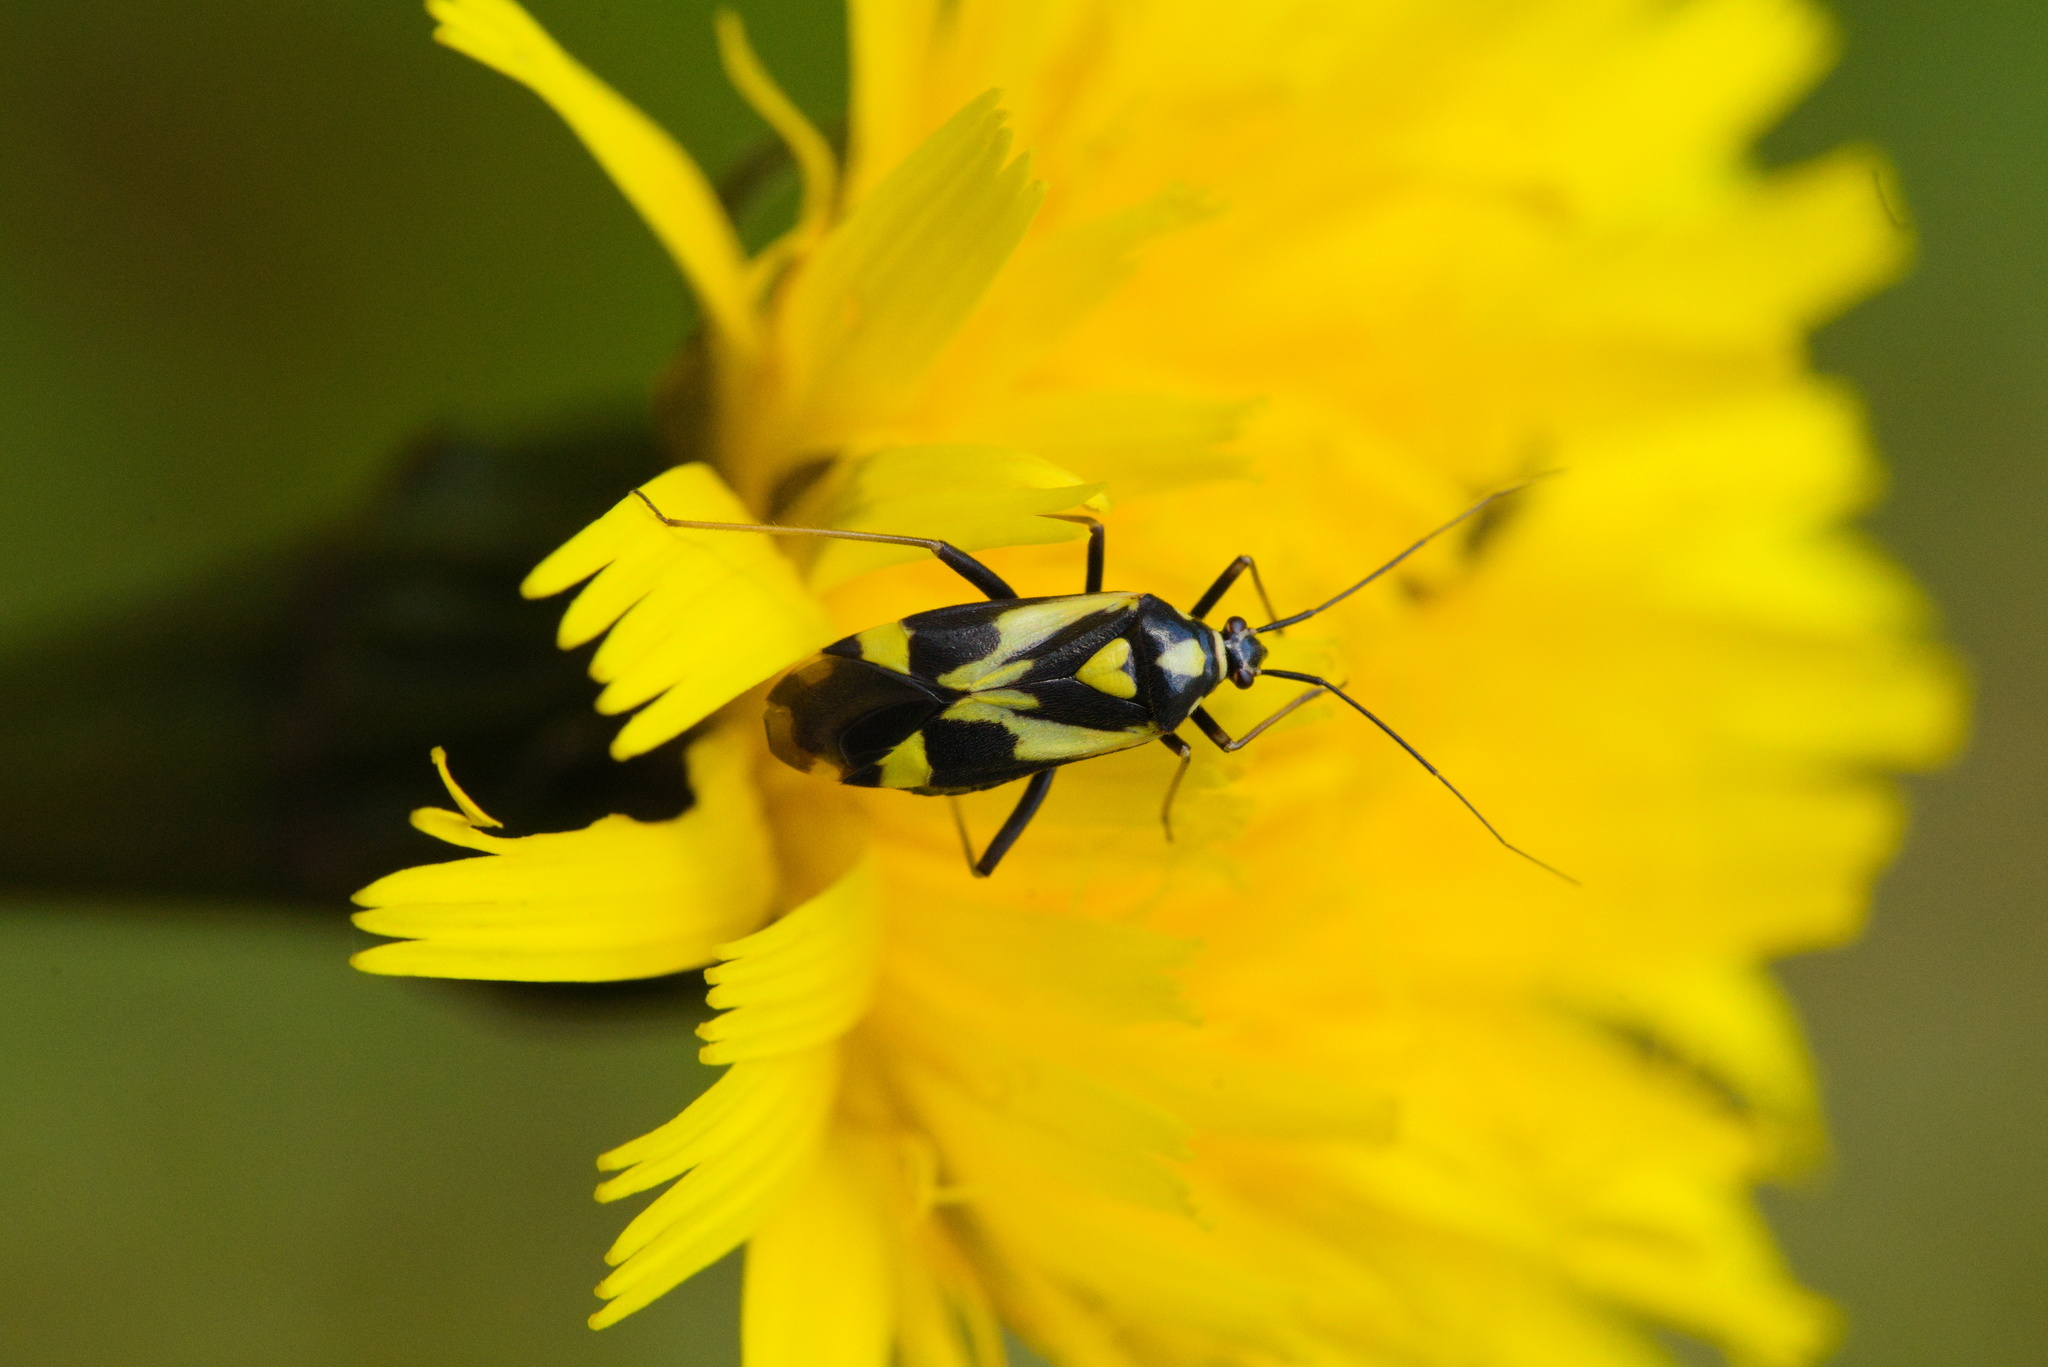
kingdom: Animalia
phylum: Arthropoda
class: Insecta
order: Hemiptera
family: Miridae
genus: Grypocoris
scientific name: Grypocoris sexguttatus
